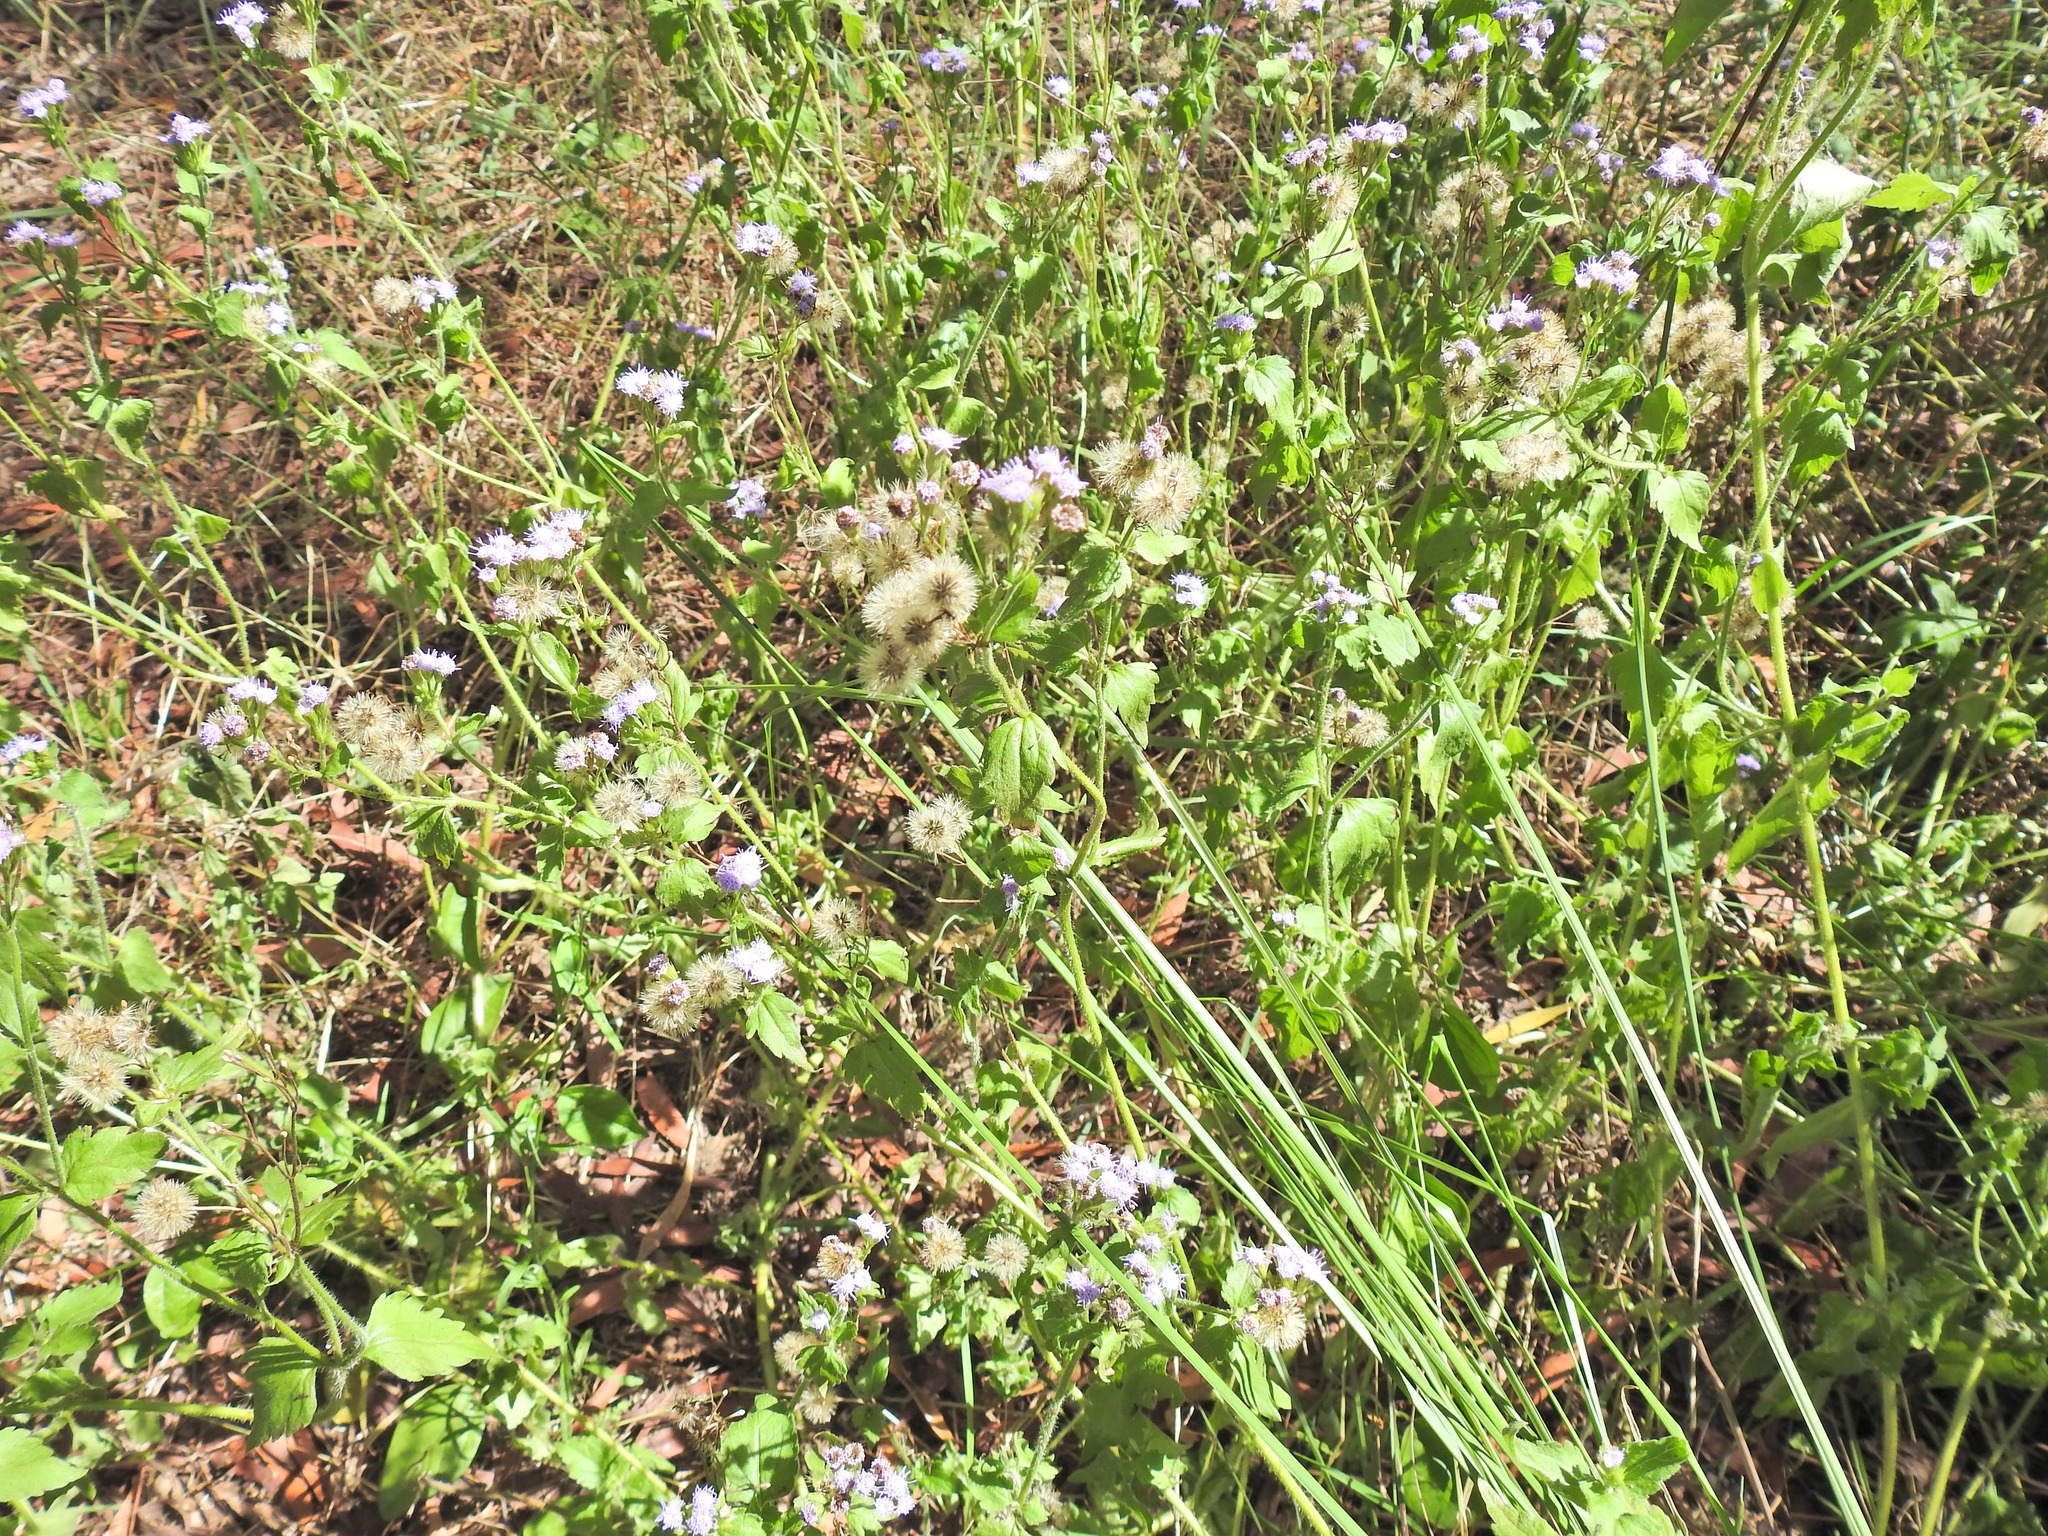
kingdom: Plantae
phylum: Tracheophyta
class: Magnoliopsida
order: Asterales
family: Asteraceae
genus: Praxelis
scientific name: Praxelis clematidea
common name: Praxelis
